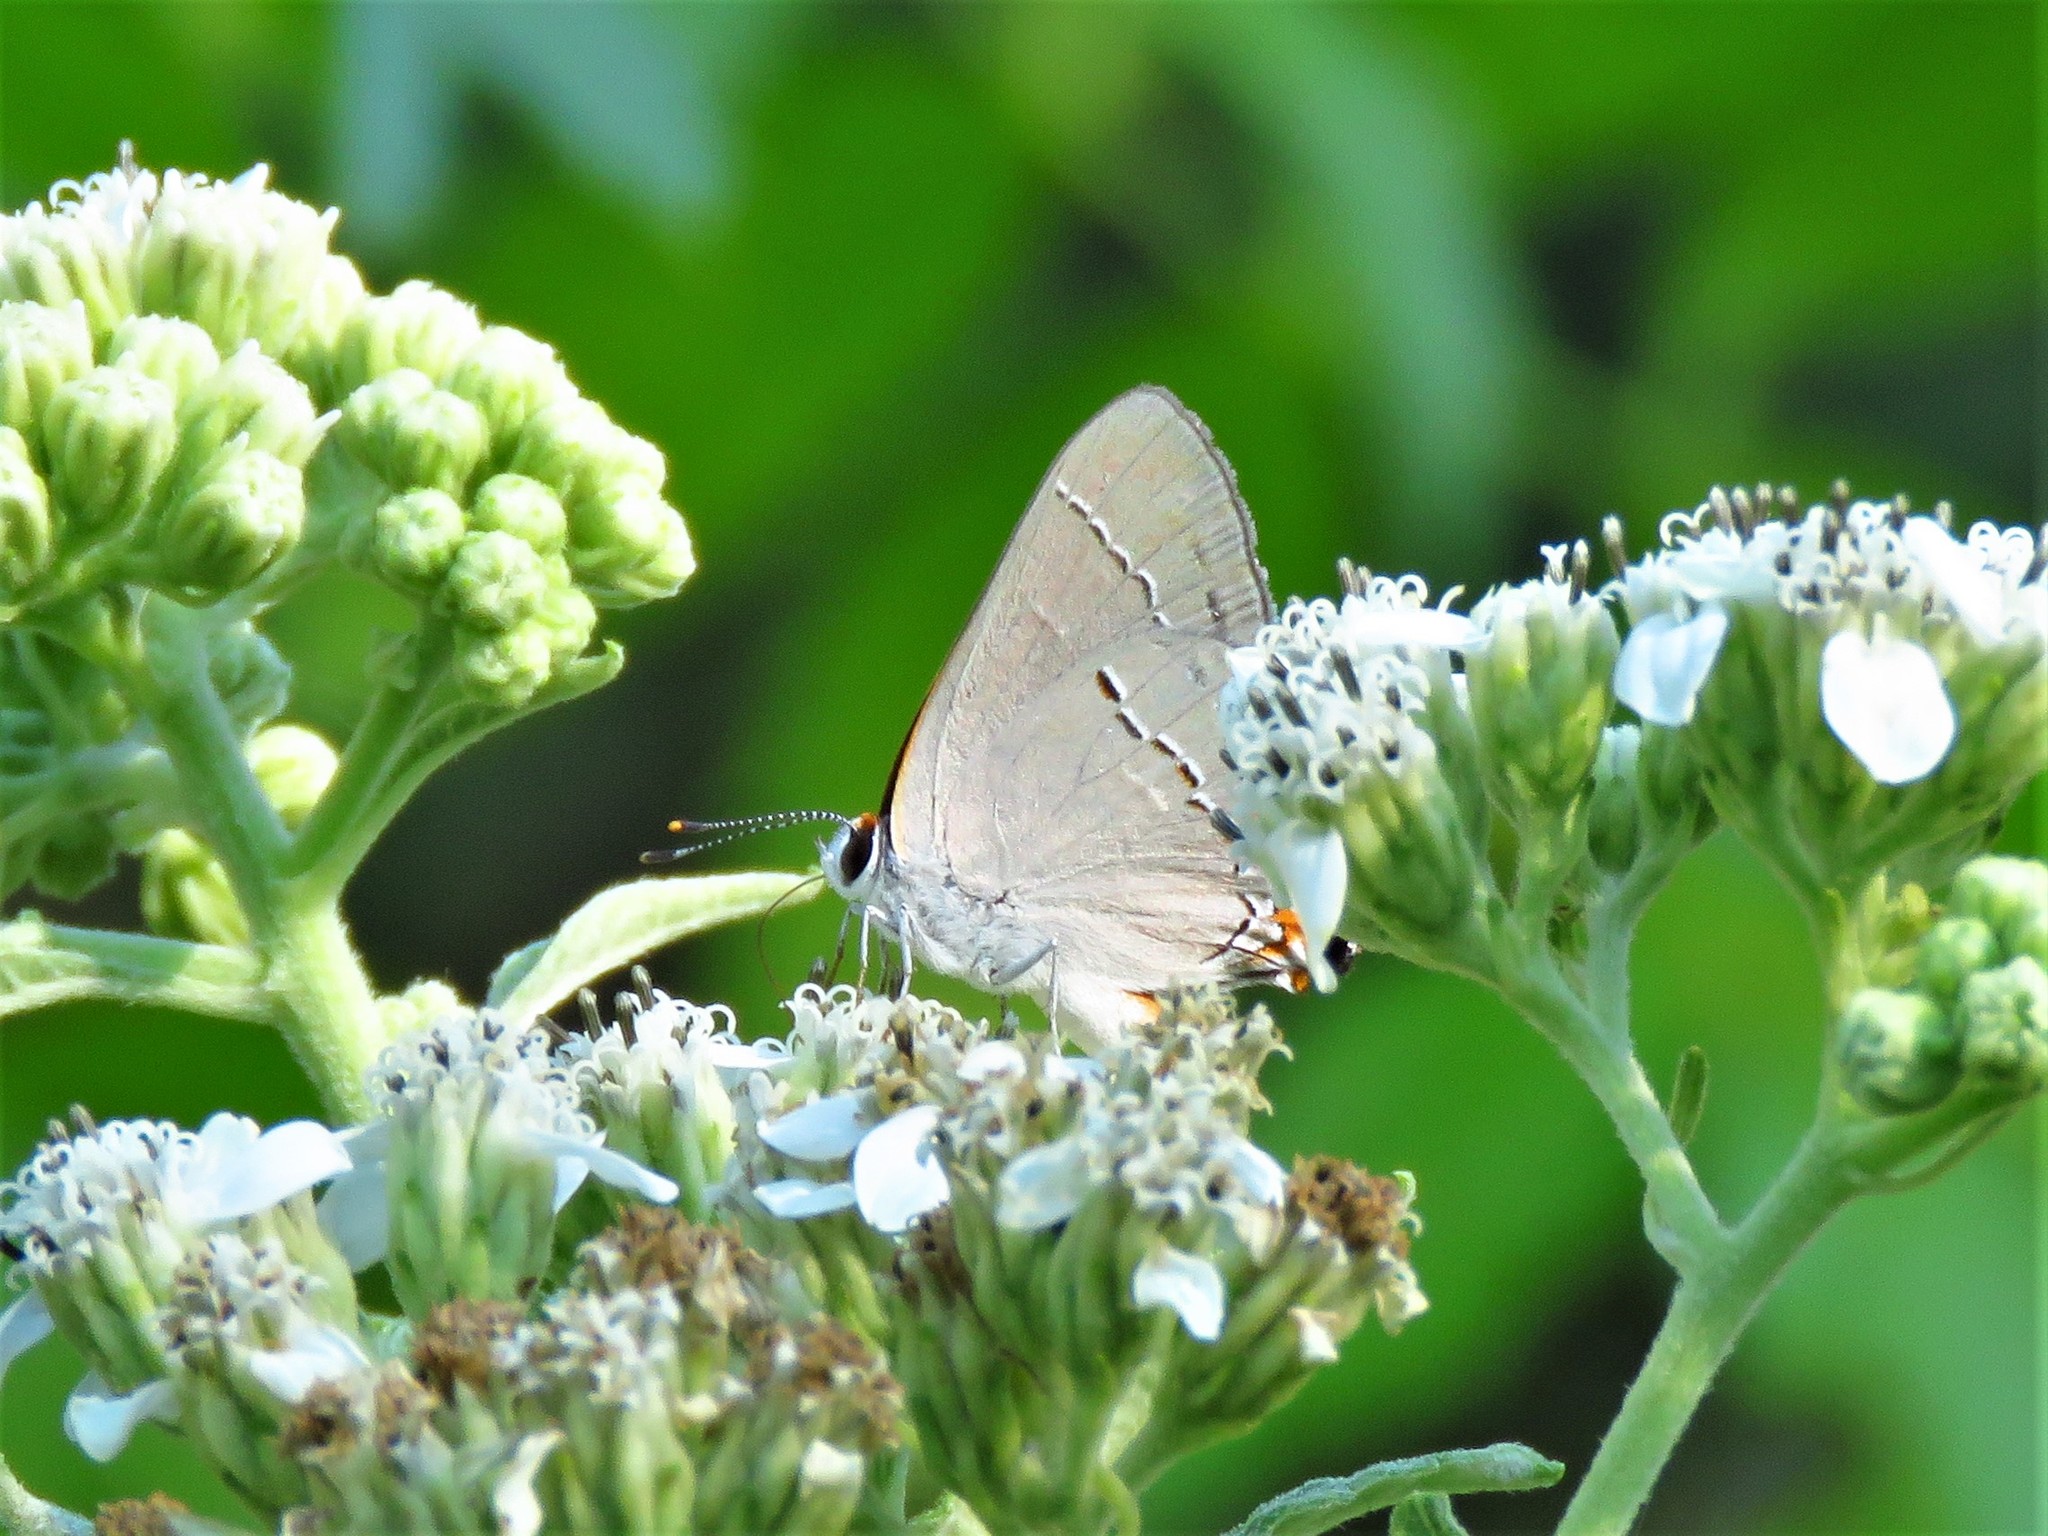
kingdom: Animalia
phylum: Arthropoda
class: Insecta
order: Lepidoptera
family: Lycaenidae
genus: Strymon
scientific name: Strymon melinus
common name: Gray hairstreak
